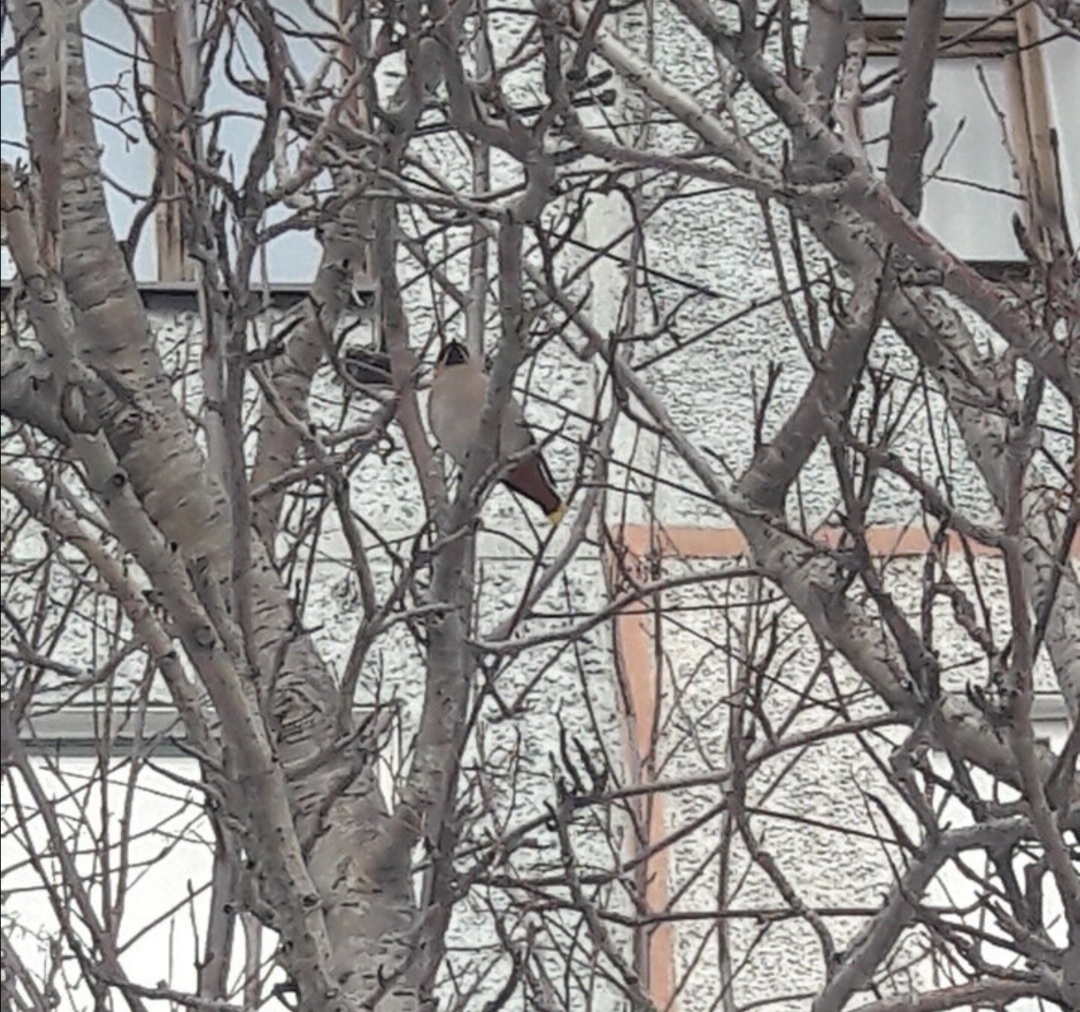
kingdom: Animalia
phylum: Chordata
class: Aves
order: Passeriformes
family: Bombycillidae
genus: Bombycilla
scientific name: Bombycilla garrulus
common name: Bohemian waxwing
